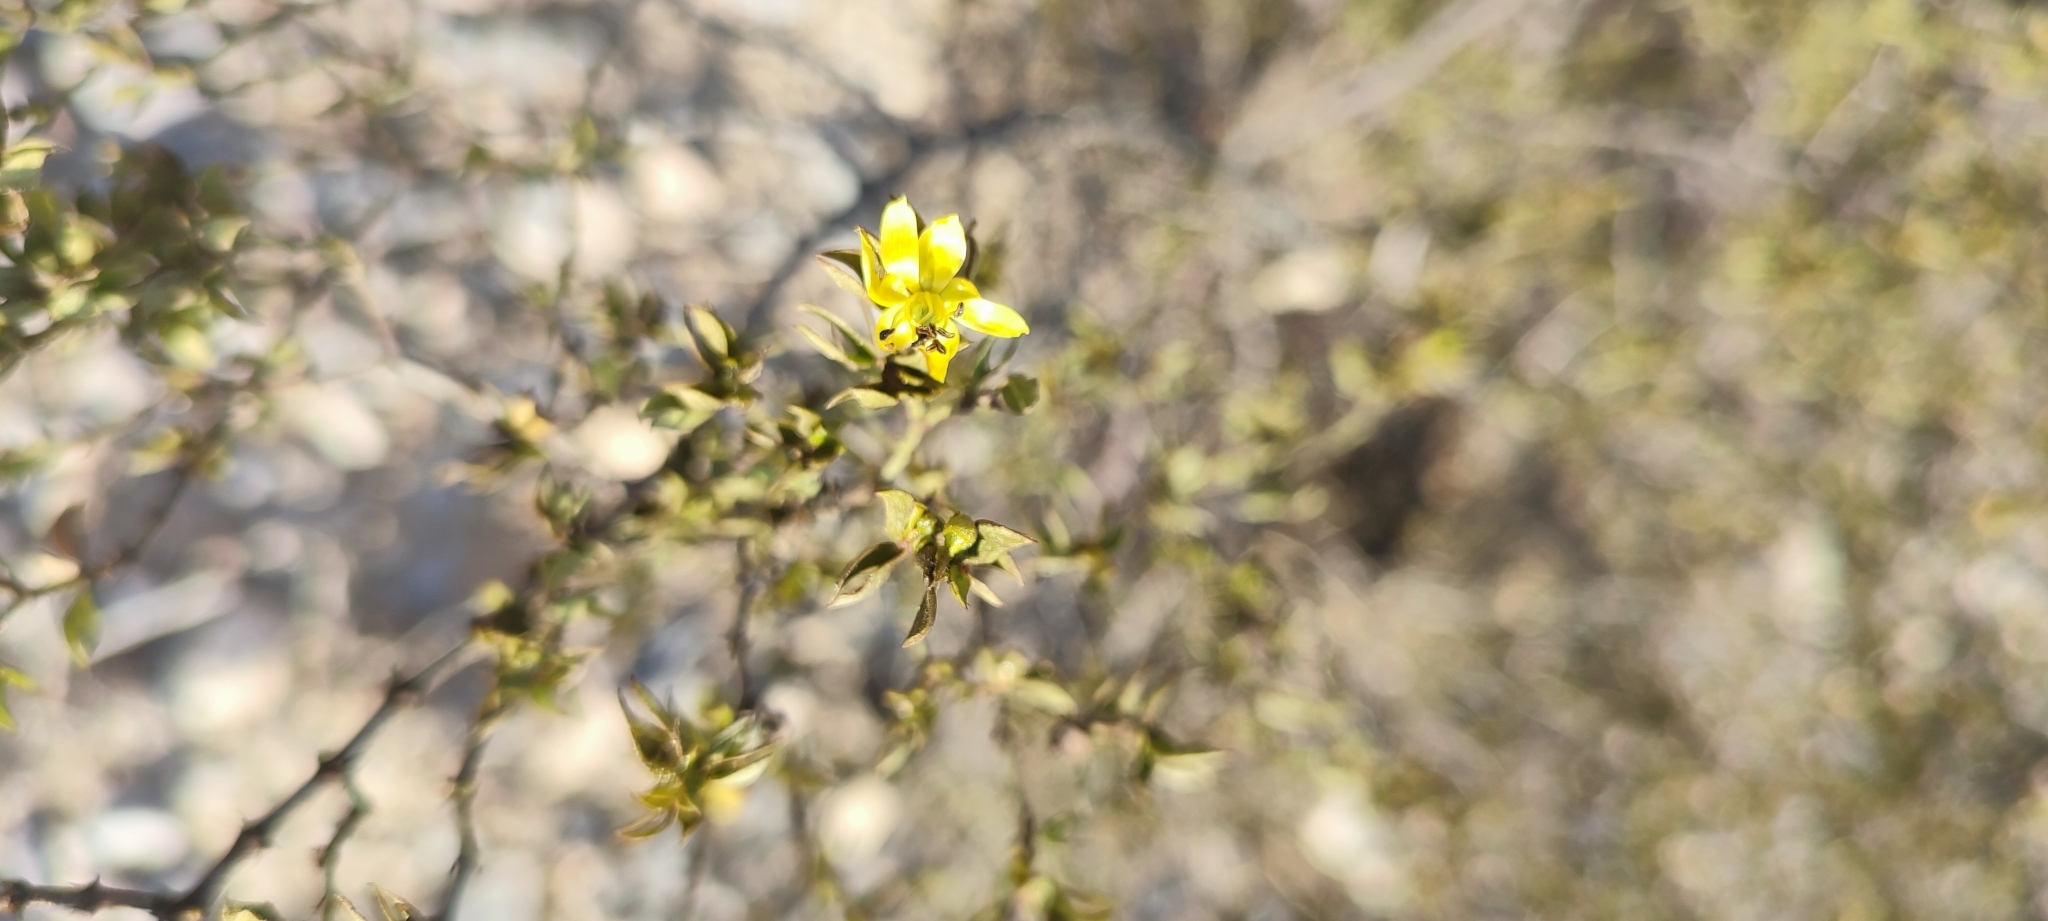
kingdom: Plantae
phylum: Tracheophyta
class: Magnoliopsida
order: Zygophyllales
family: Zygophyllaceae
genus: Larrea
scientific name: Larrea tridentata
